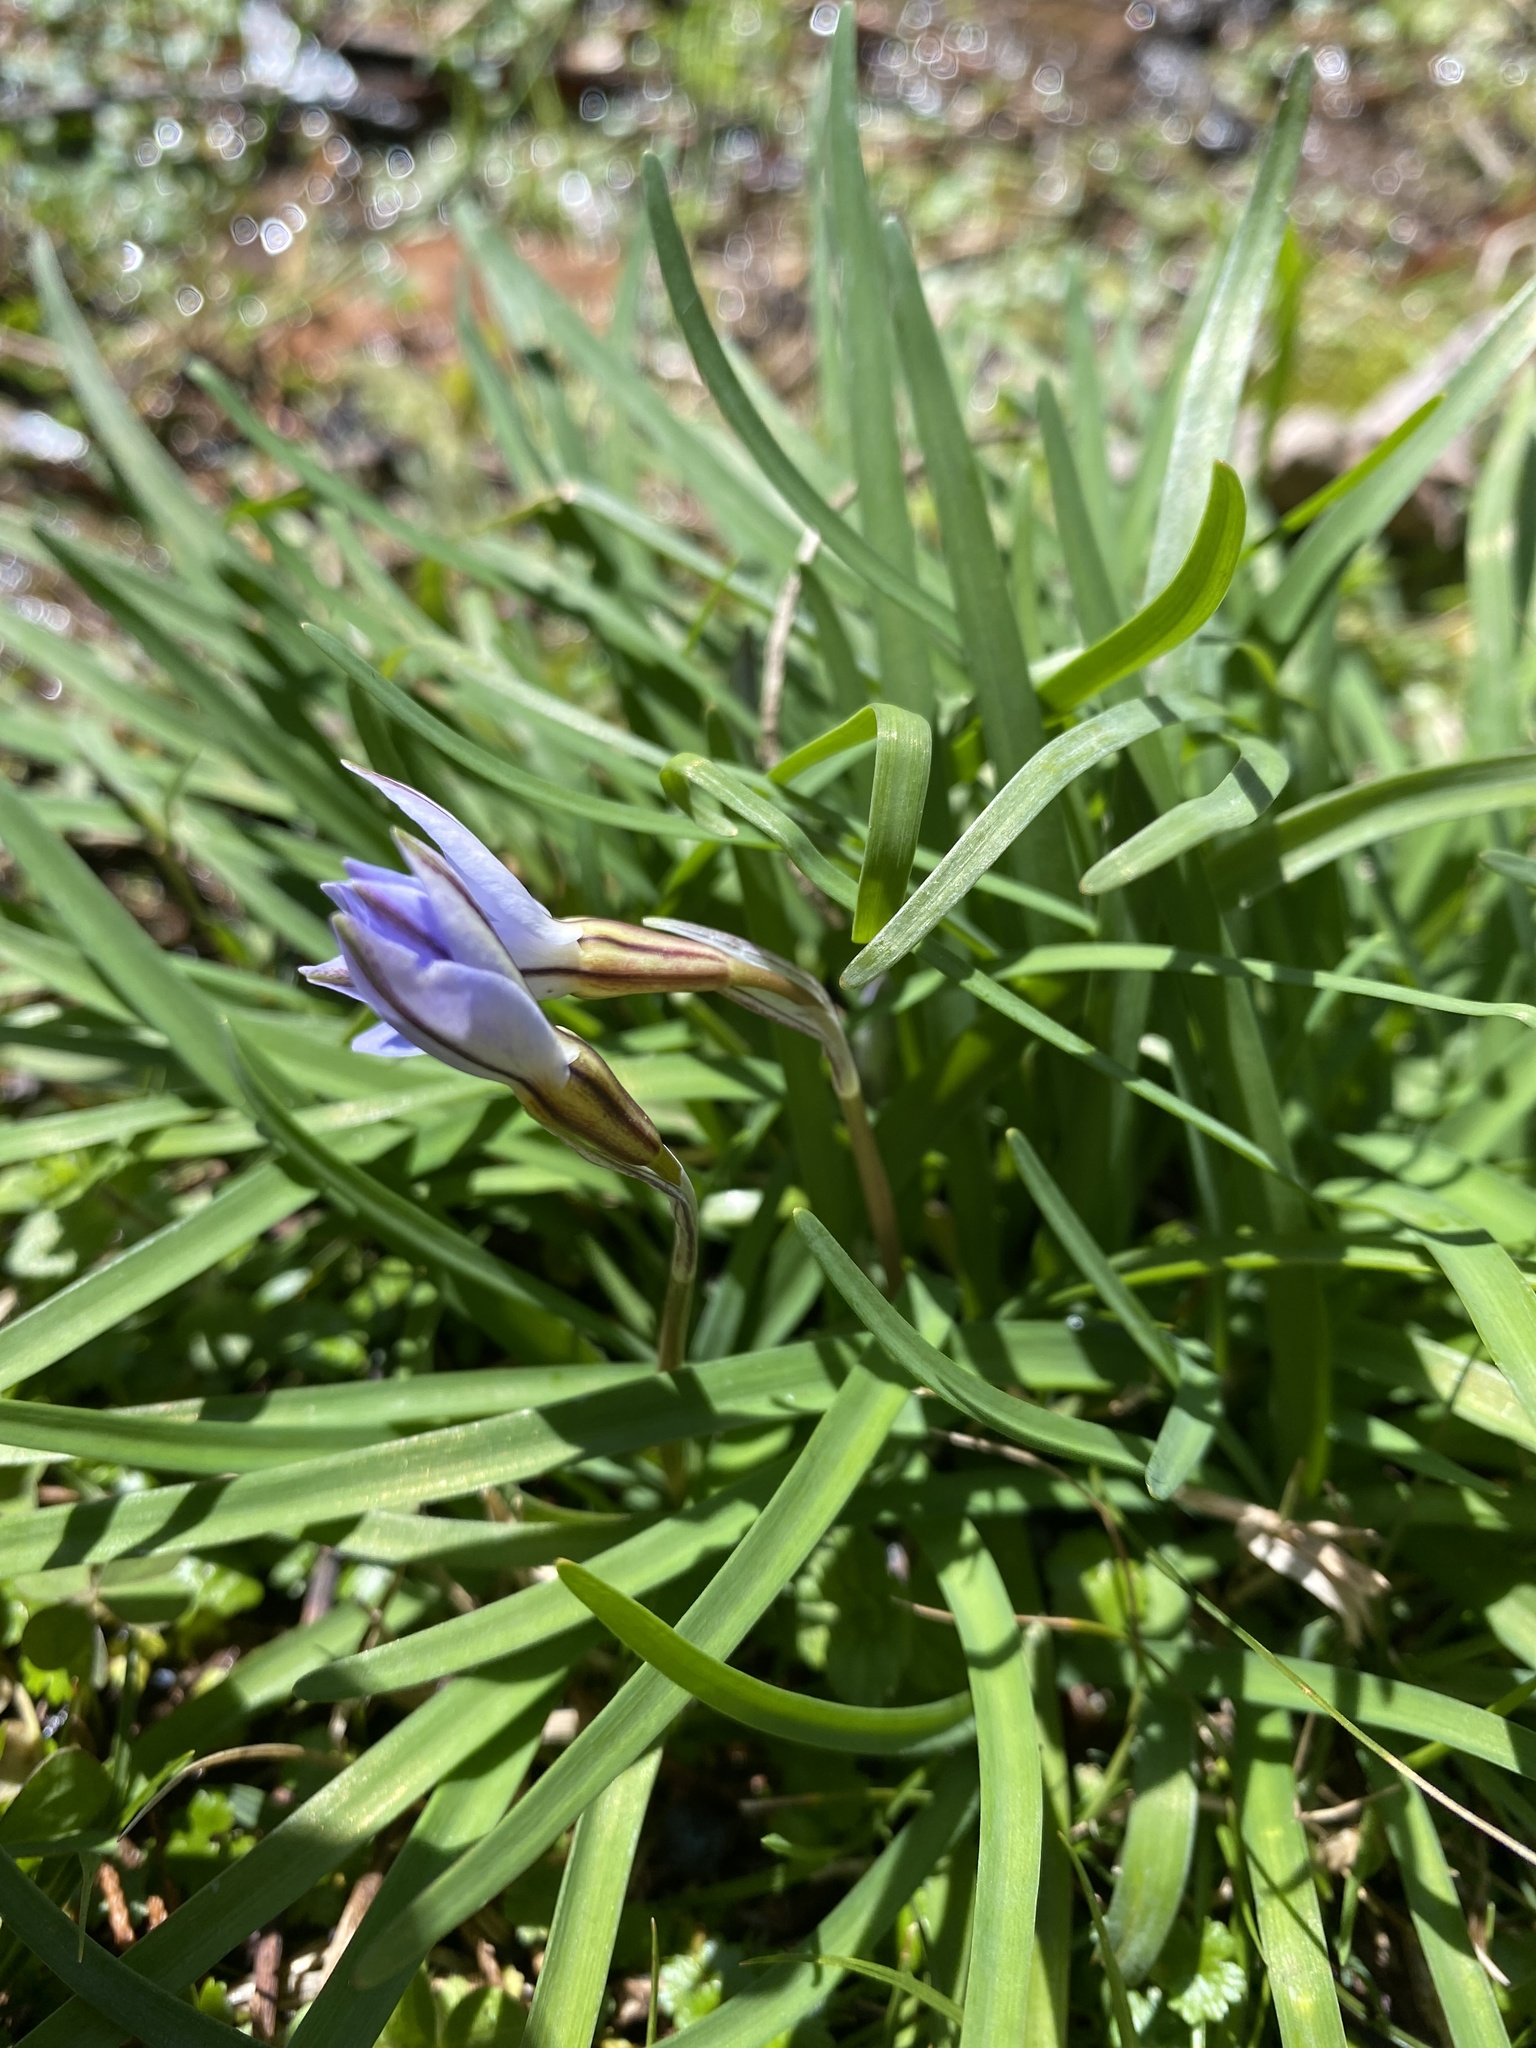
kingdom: Plantae
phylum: Tracheophyta
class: Liliopsida
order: Asparagales
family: Amaryllidaceae
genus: Ipheion
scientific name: Ipheion uniflorum
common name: Spring starflower
